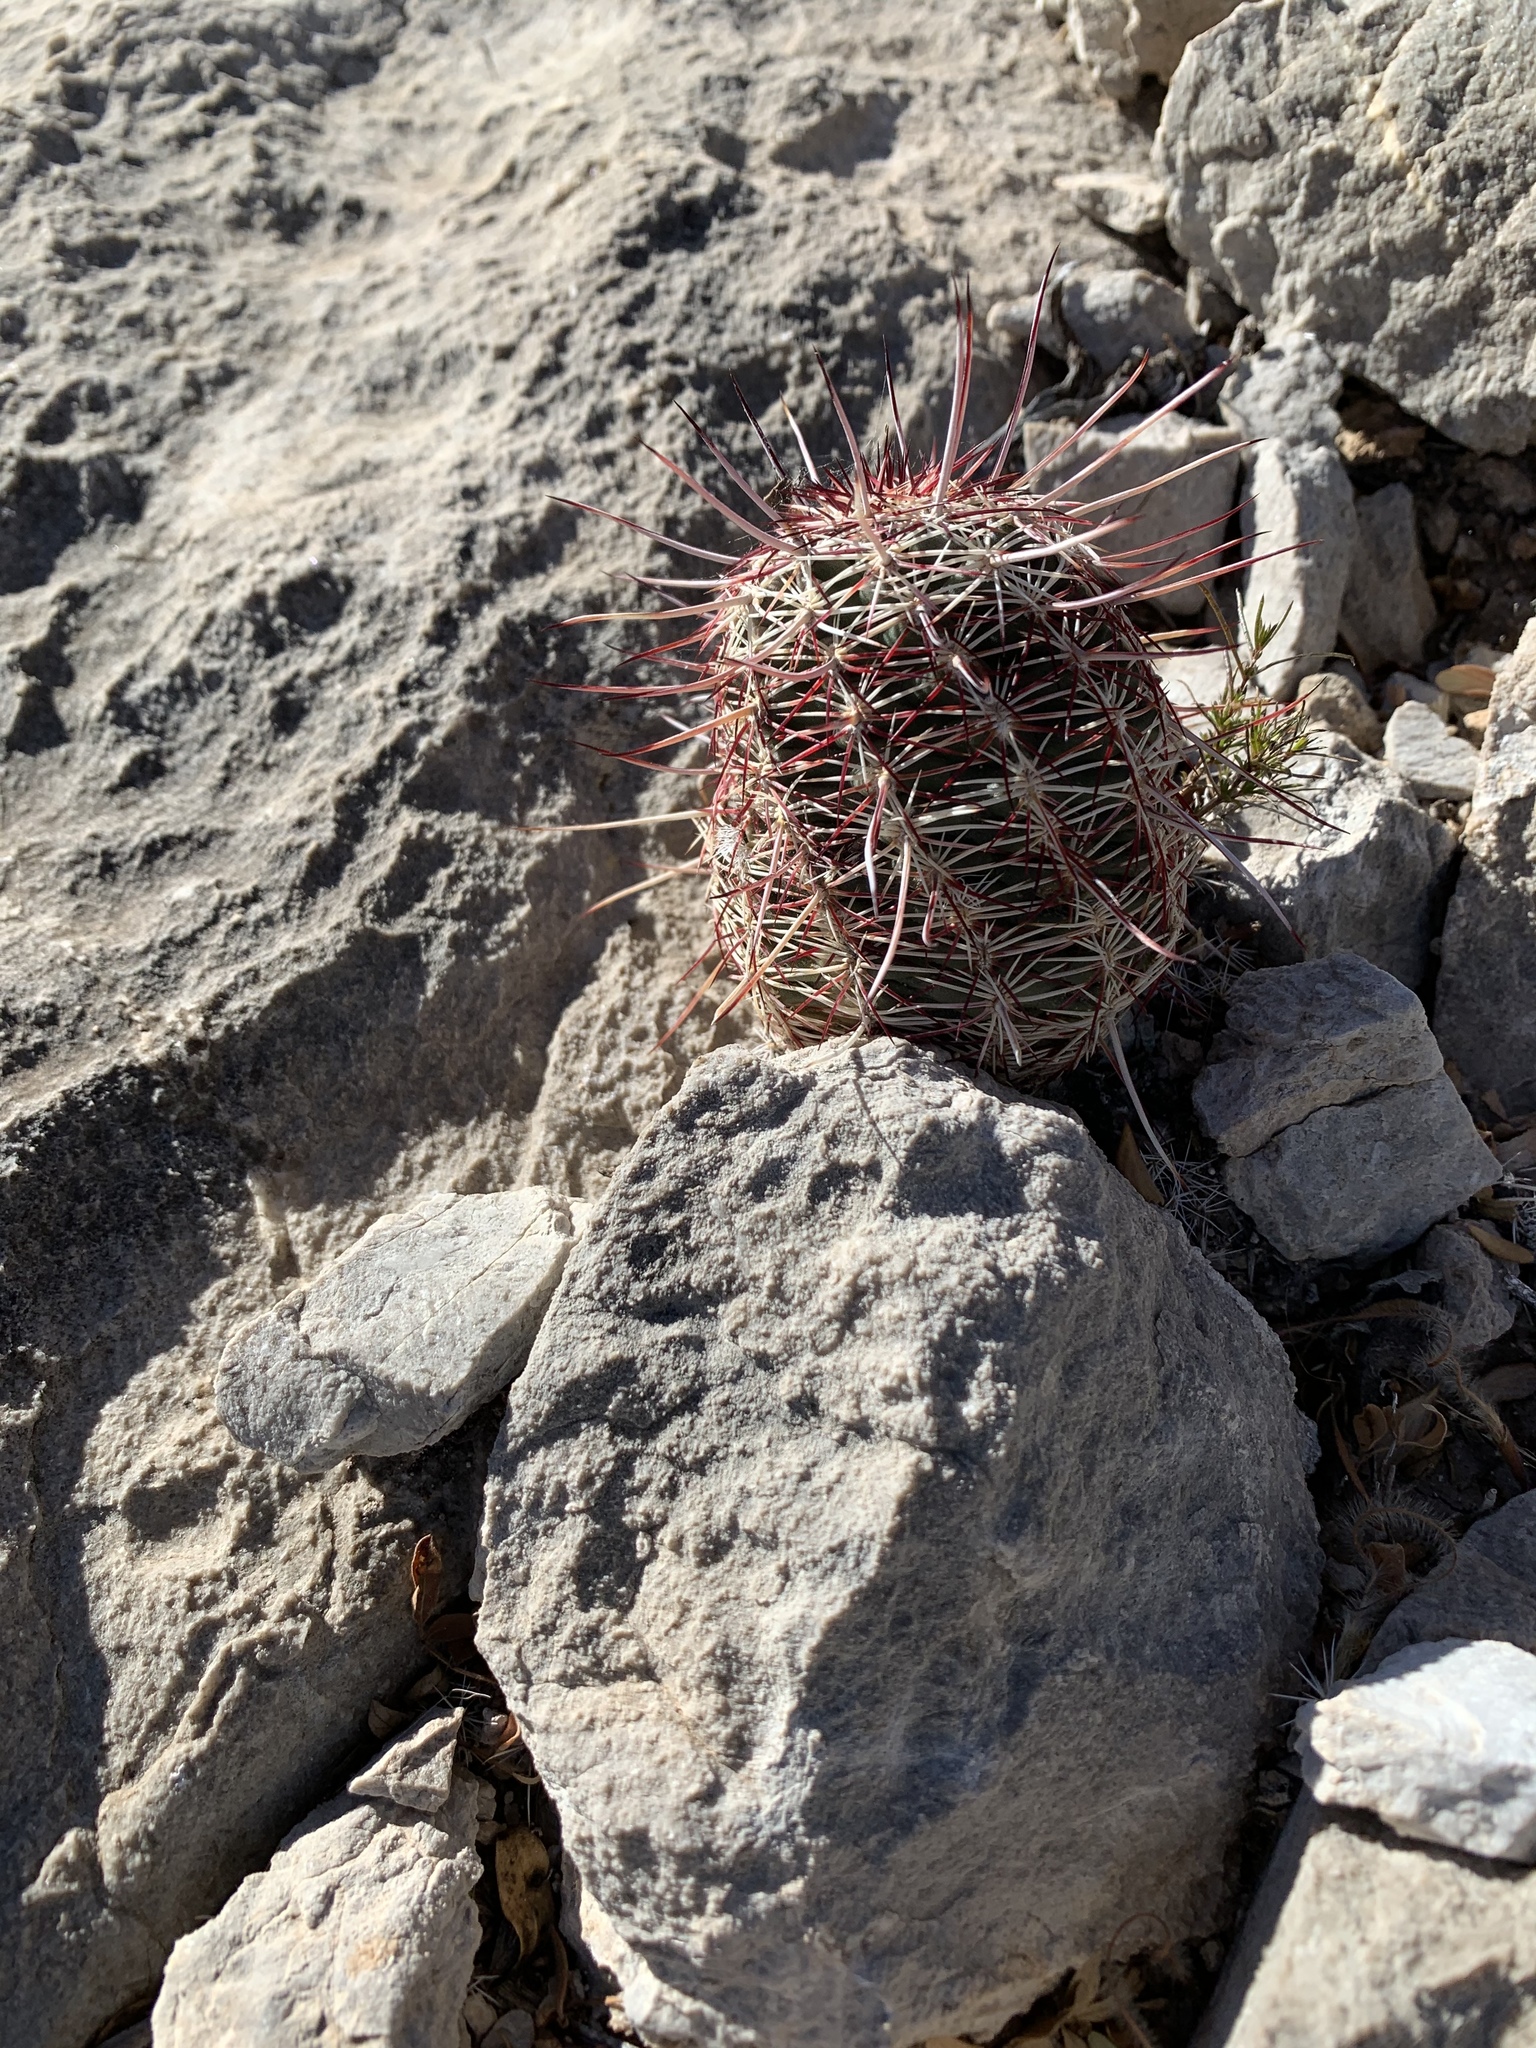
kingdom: Plantae
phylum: Tracheophyta
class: Magnoliopsida
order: Caryophyllales
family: Cactaceae
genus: Echinocereus
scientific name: Echinocereus viridiflorus
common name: Nylon hedgehog cactus
